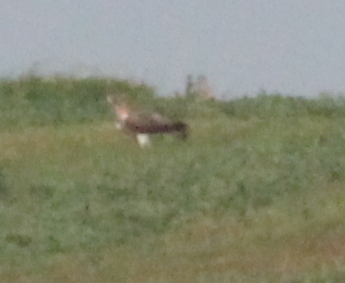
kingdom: Animalia
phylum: Chordata
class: Aves
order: Accipitriformes
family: Accipitridae
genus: Buteo
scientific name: Buteo swainsoni
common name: Swainson's hawk
